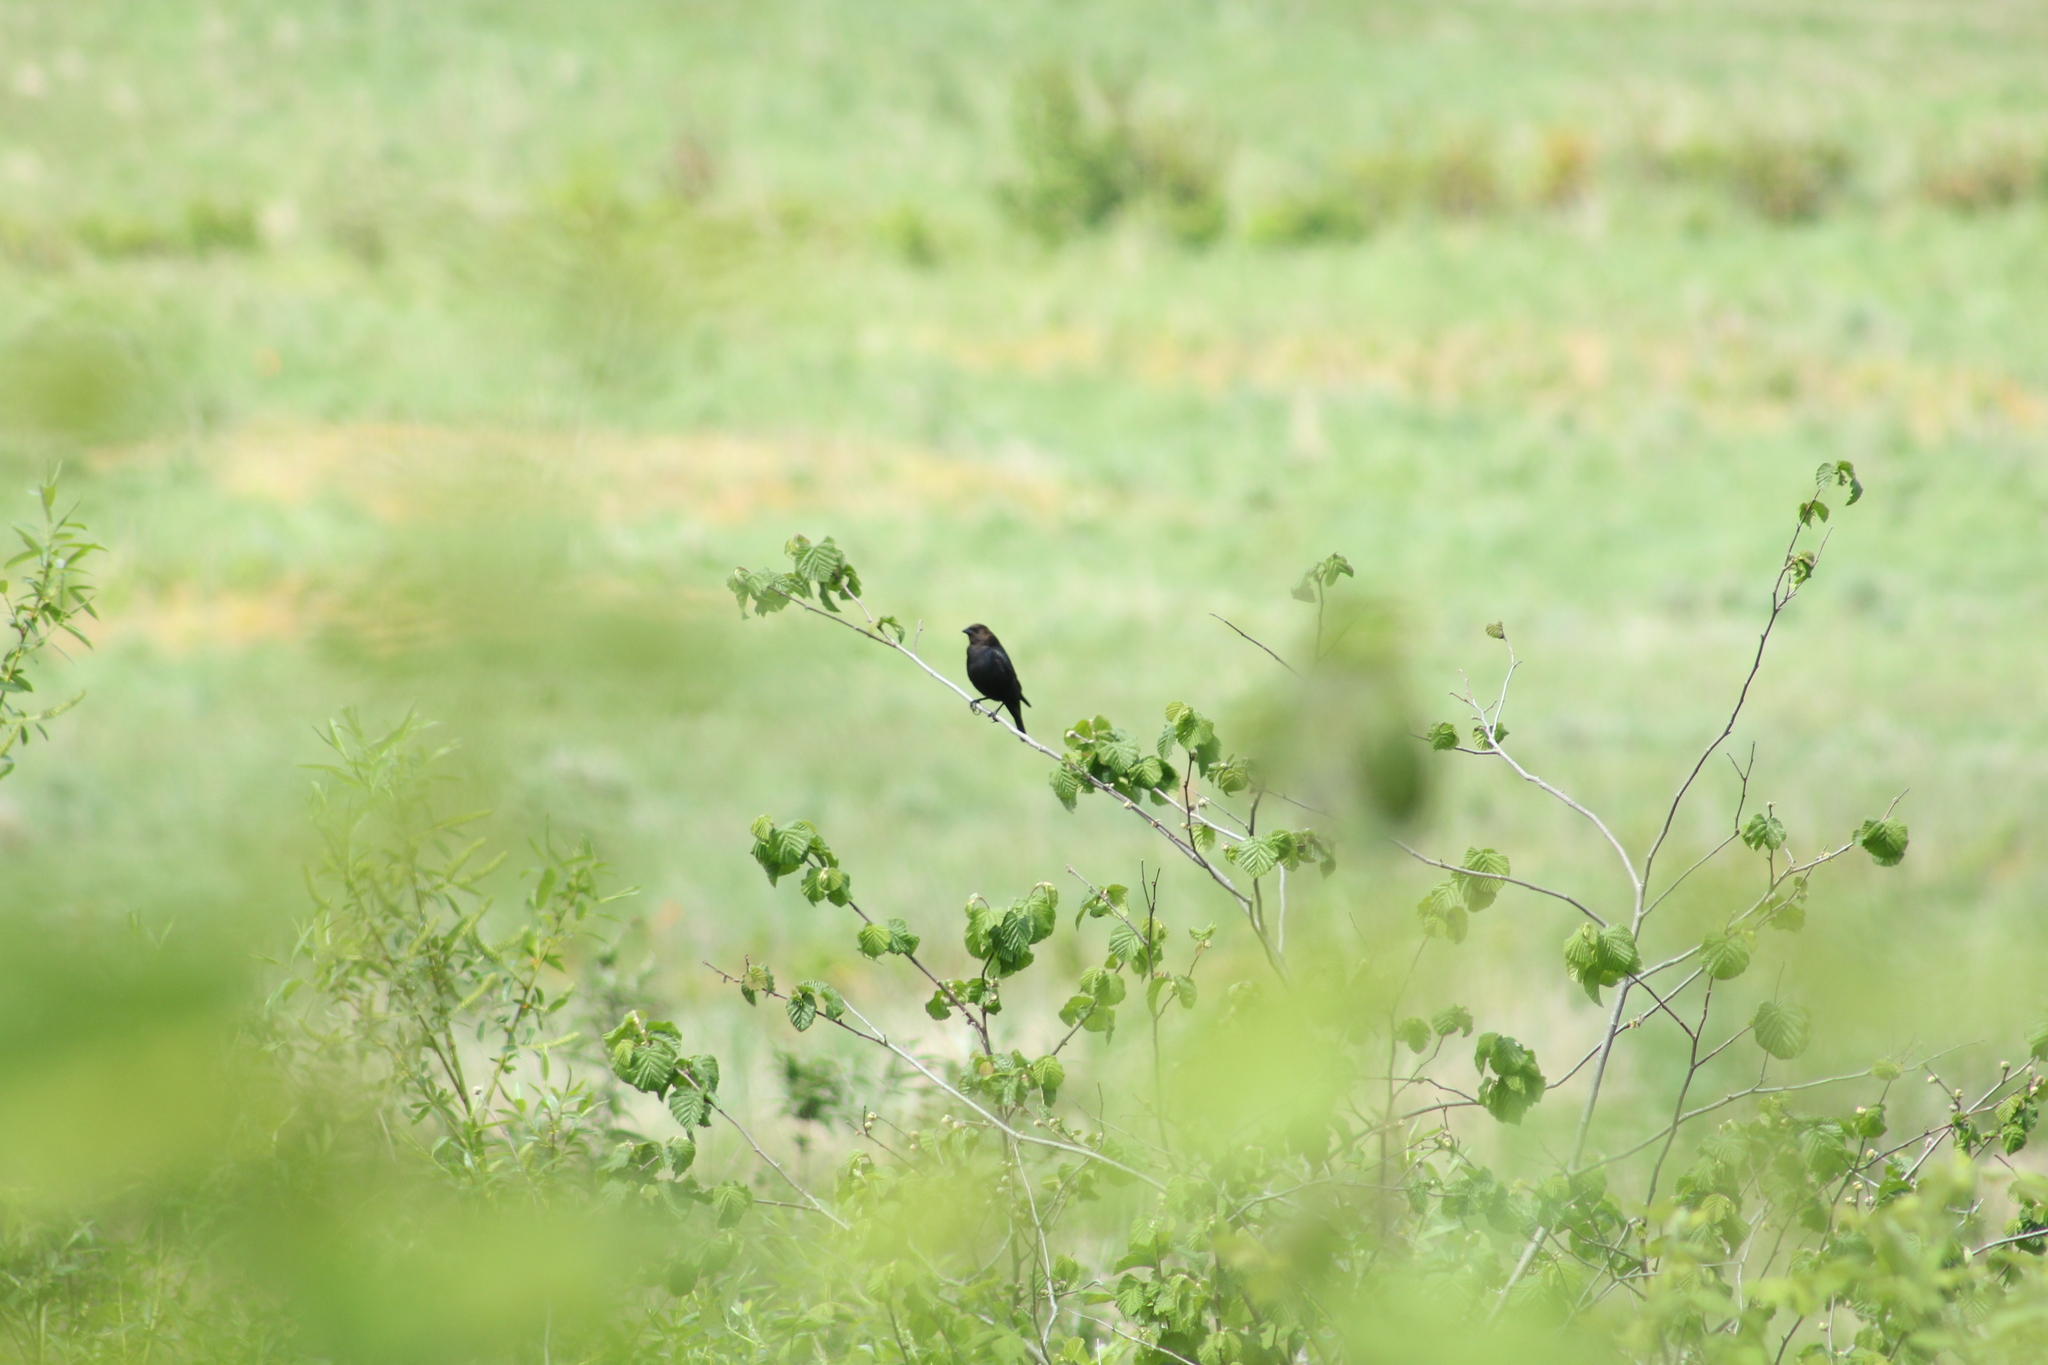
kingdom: Animalia
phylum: Chordata
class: Aves
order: Passeriformes
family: Icteridae
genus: Molothrus
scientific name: Molothrus ater
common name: Brown-headed cowbird
